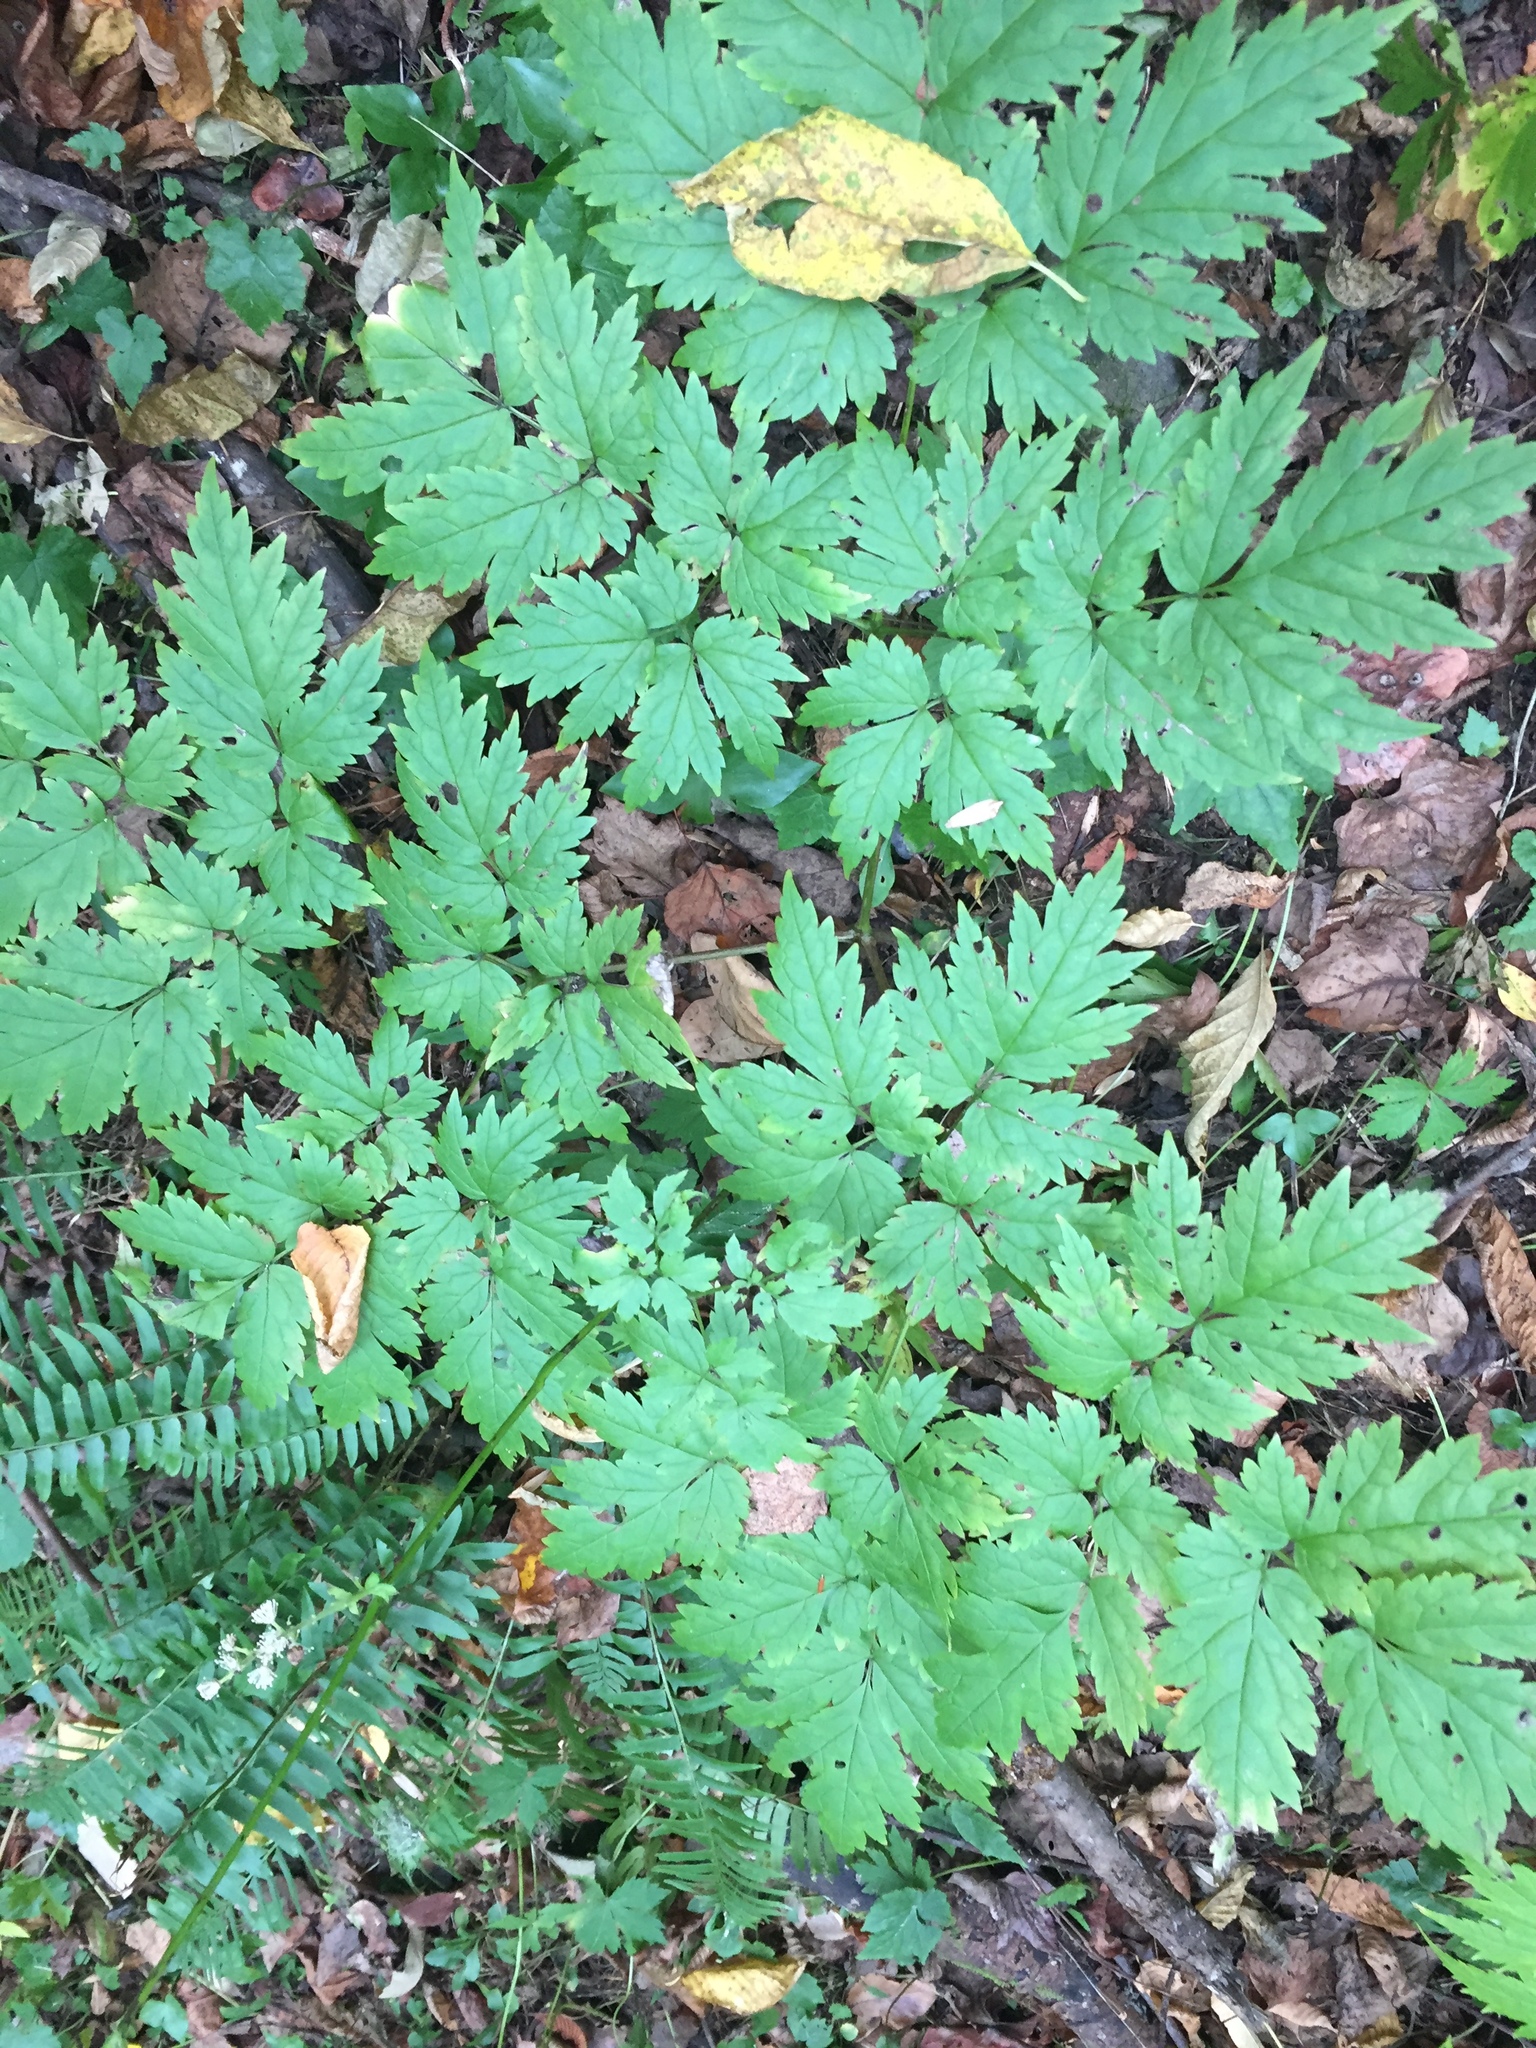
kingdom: Plantae
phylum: Tracheophyta
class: Magnoliopsida
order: Ranunculales
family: Ranunculaceae
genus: Actaea
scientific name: Actaea podocarpa
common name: American bugbane
